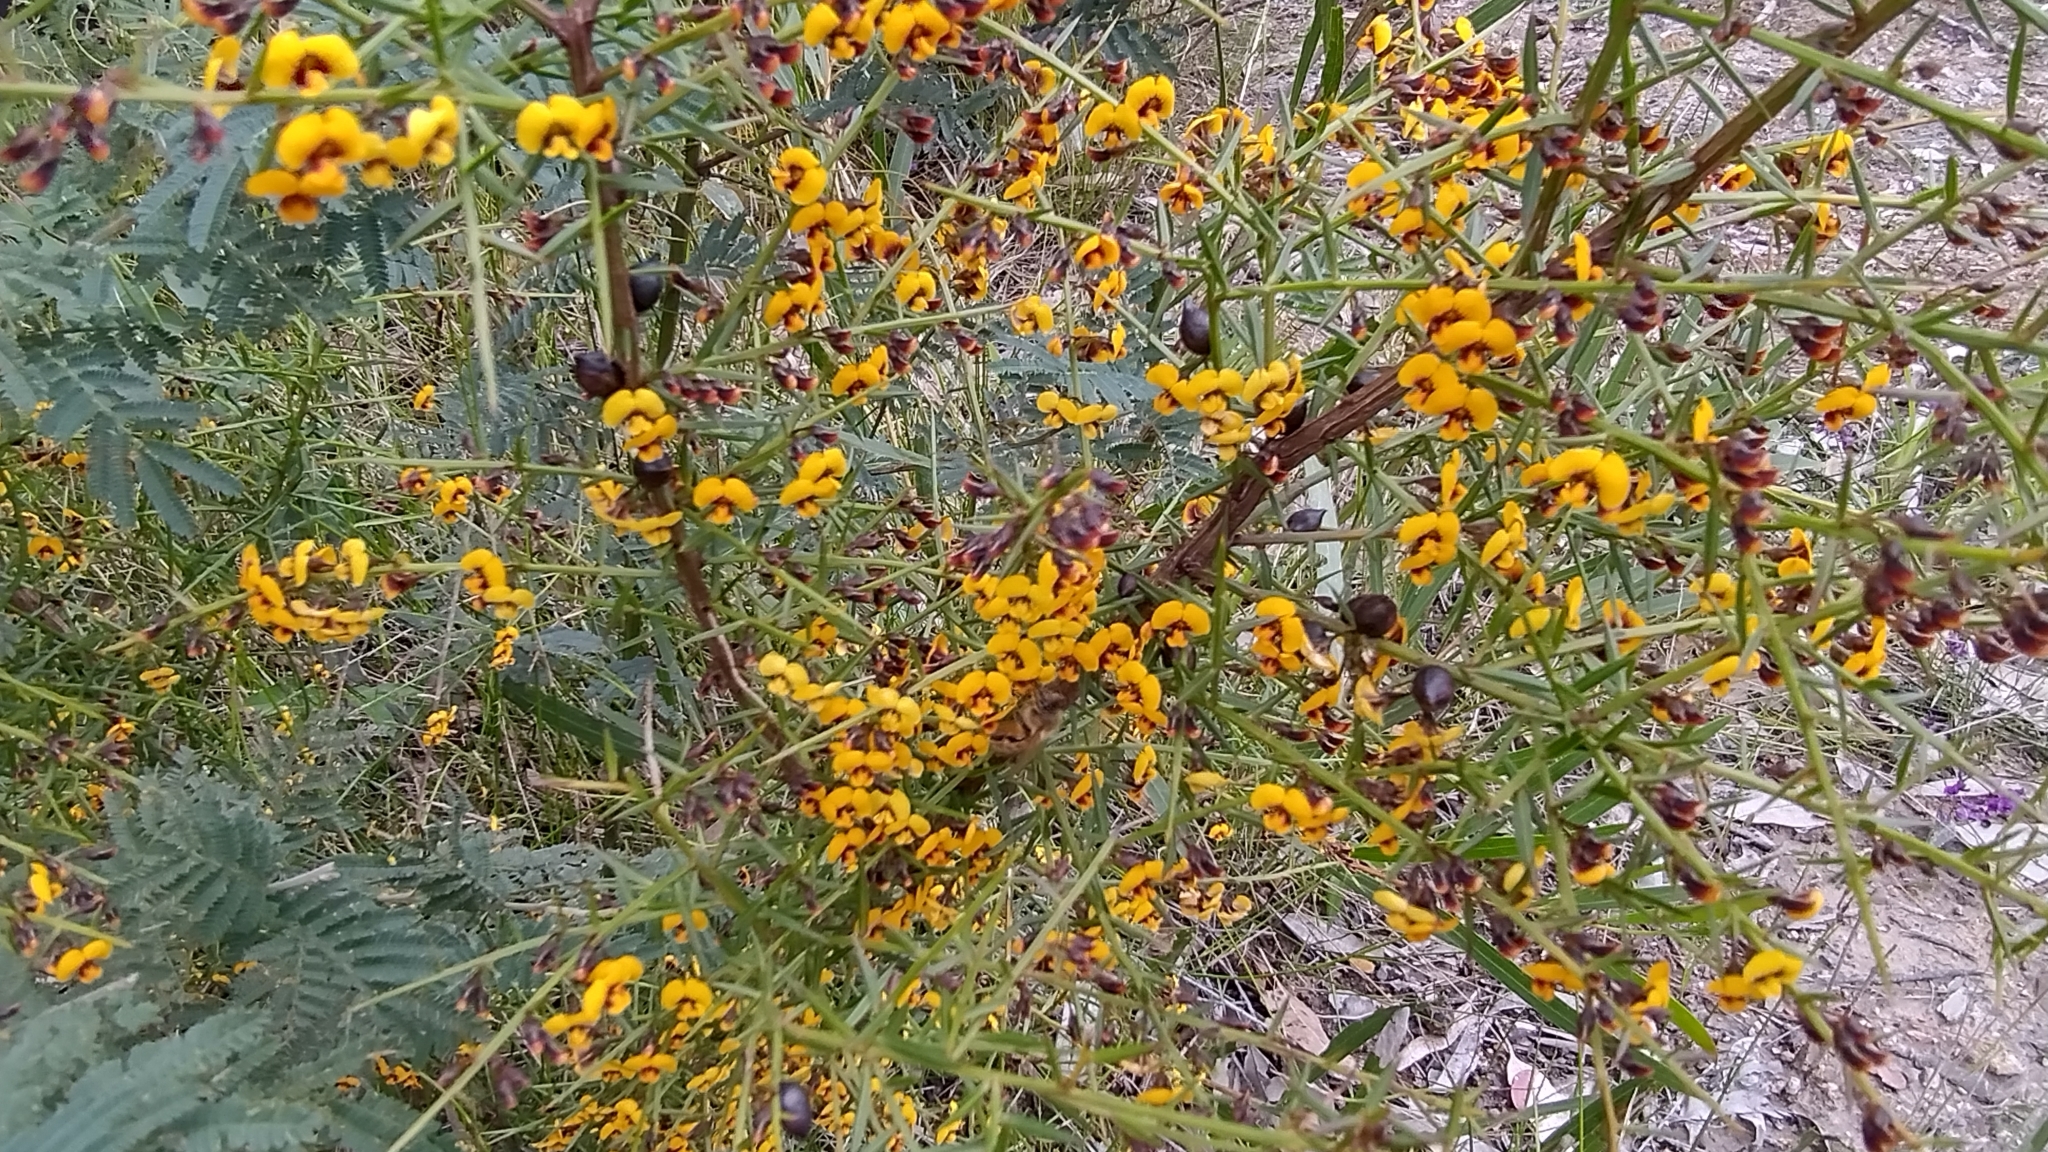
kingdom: Plantae
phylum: Tracheophyta
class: Magnoliopsida
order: Fabales
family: Fabaceae
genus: Daviesia
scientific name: Daviesia ulicifolia
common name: Gorse bitter-pea
